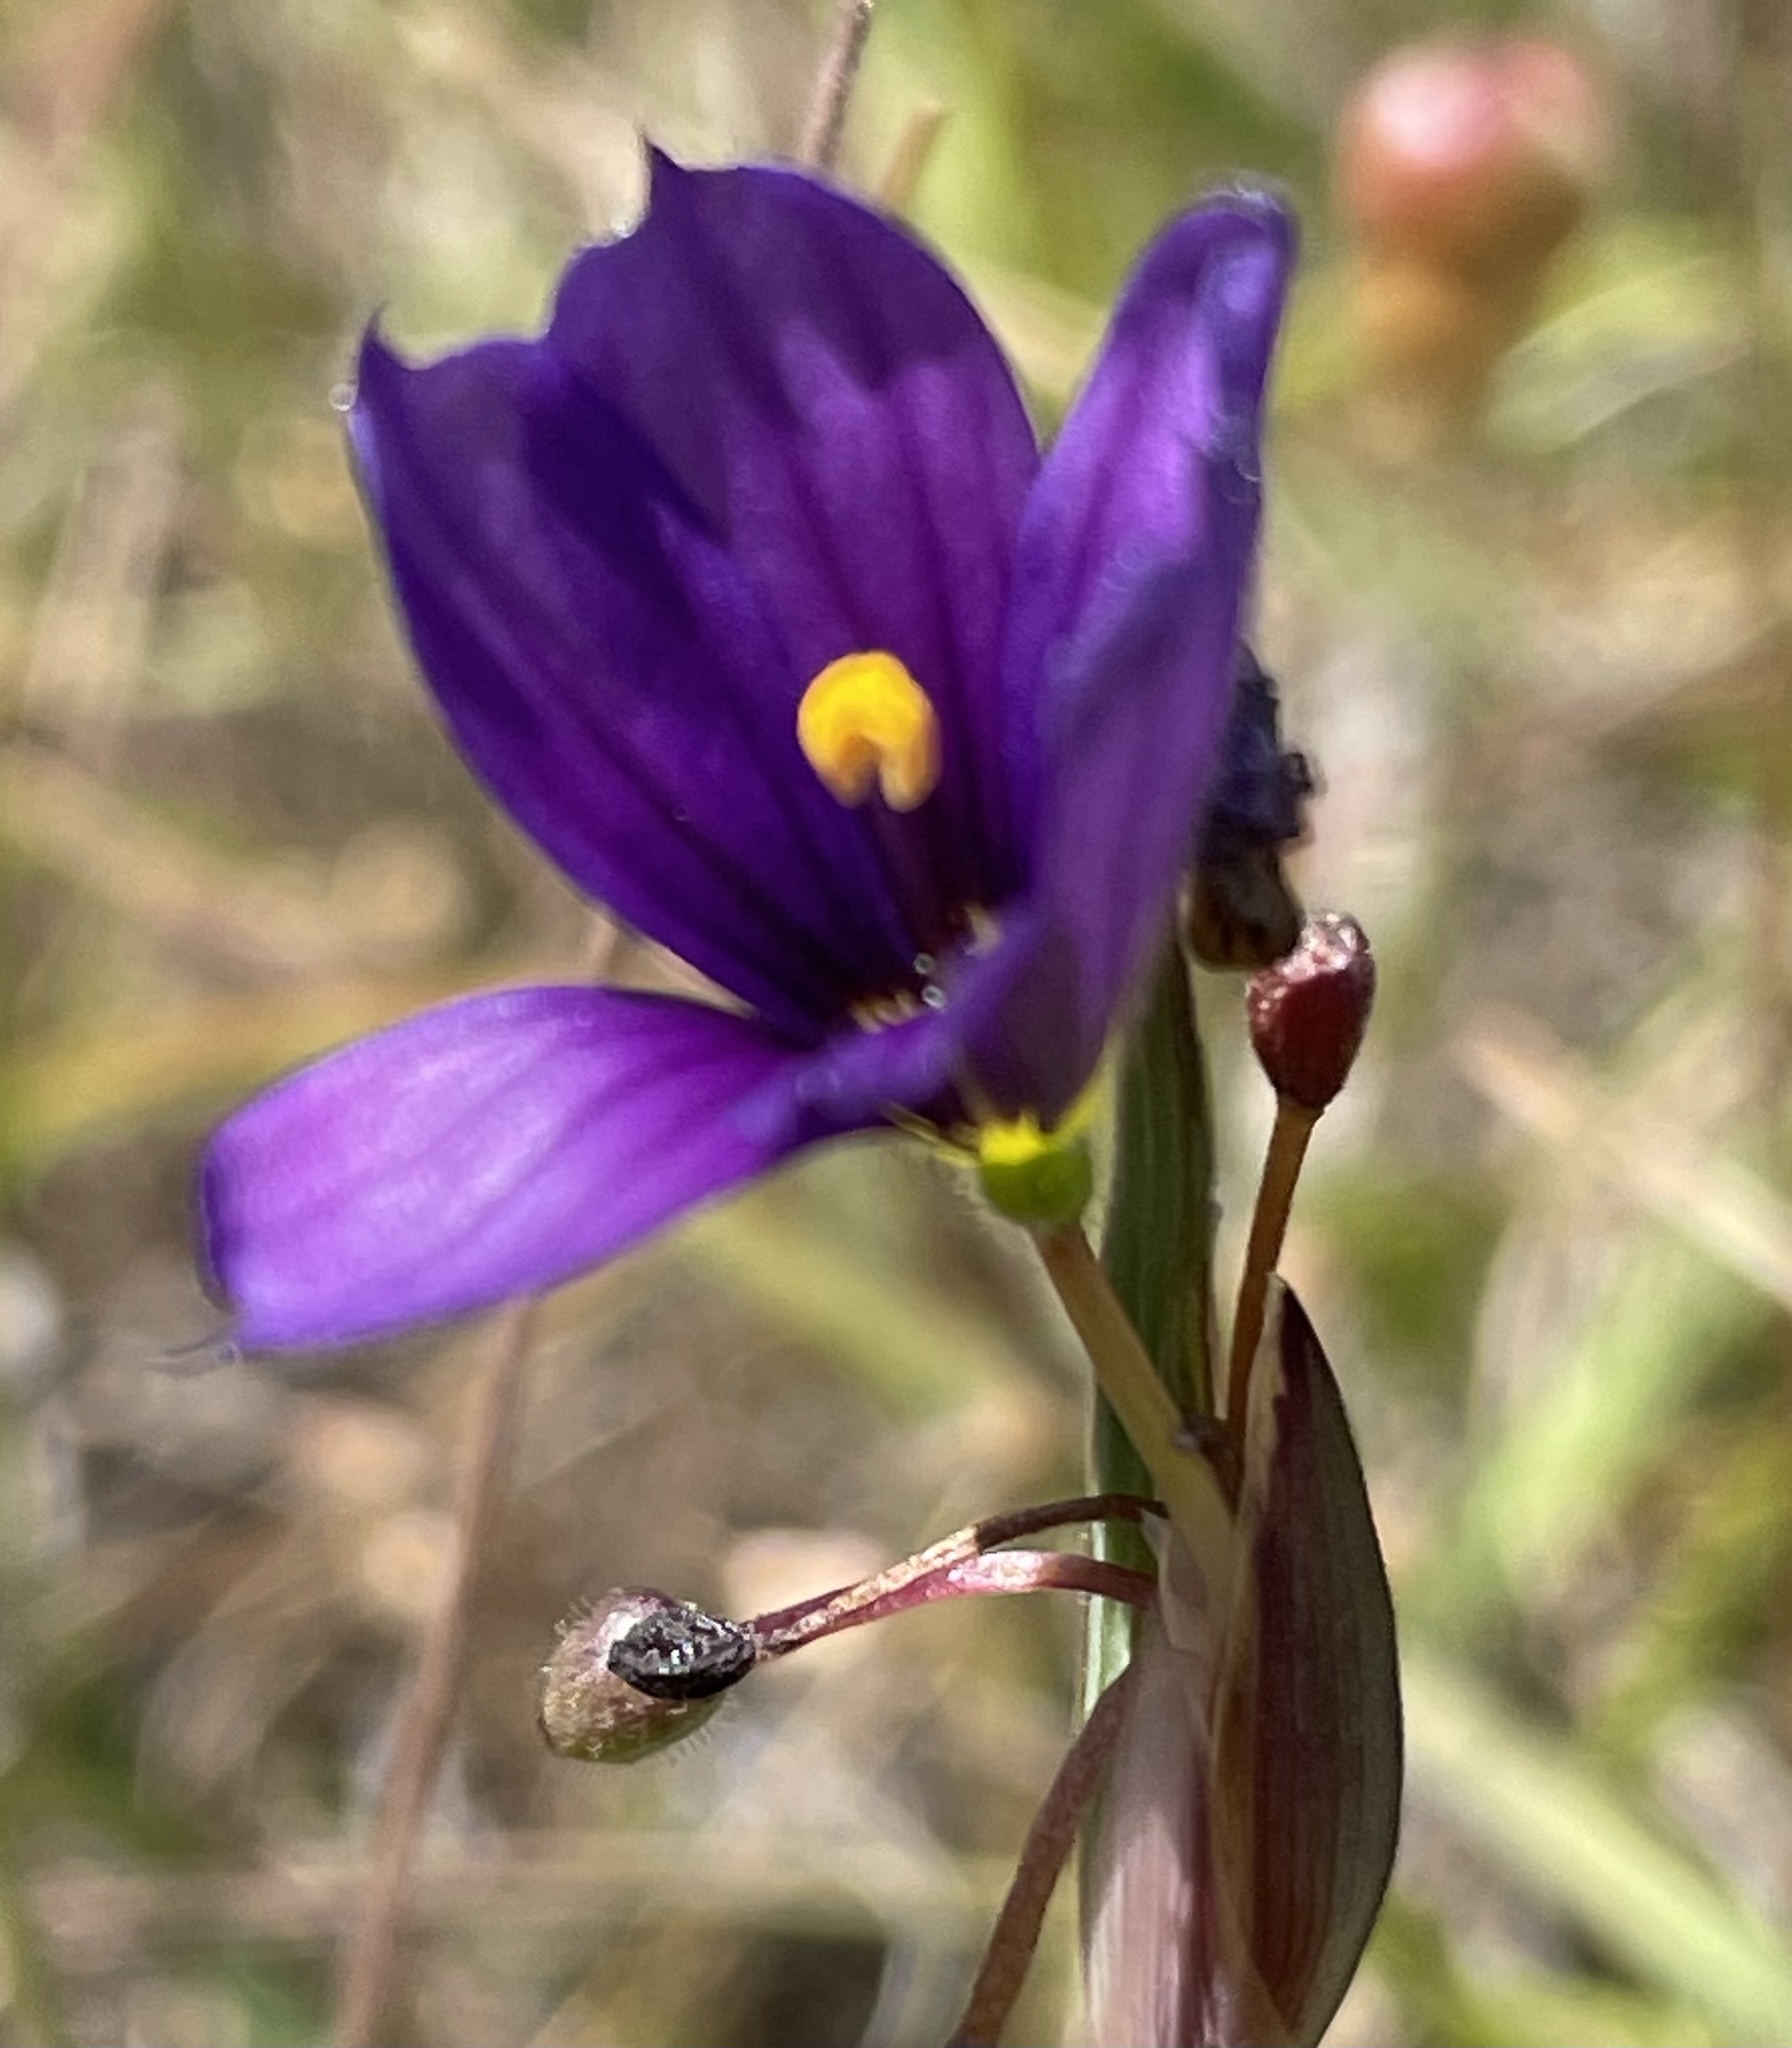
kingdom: Plantae
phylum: Tracheophyta
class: Liliopsida
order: Asparagales
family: Iridaceae
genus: Sisyrinchium
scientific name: Sisyrinchium bellum
